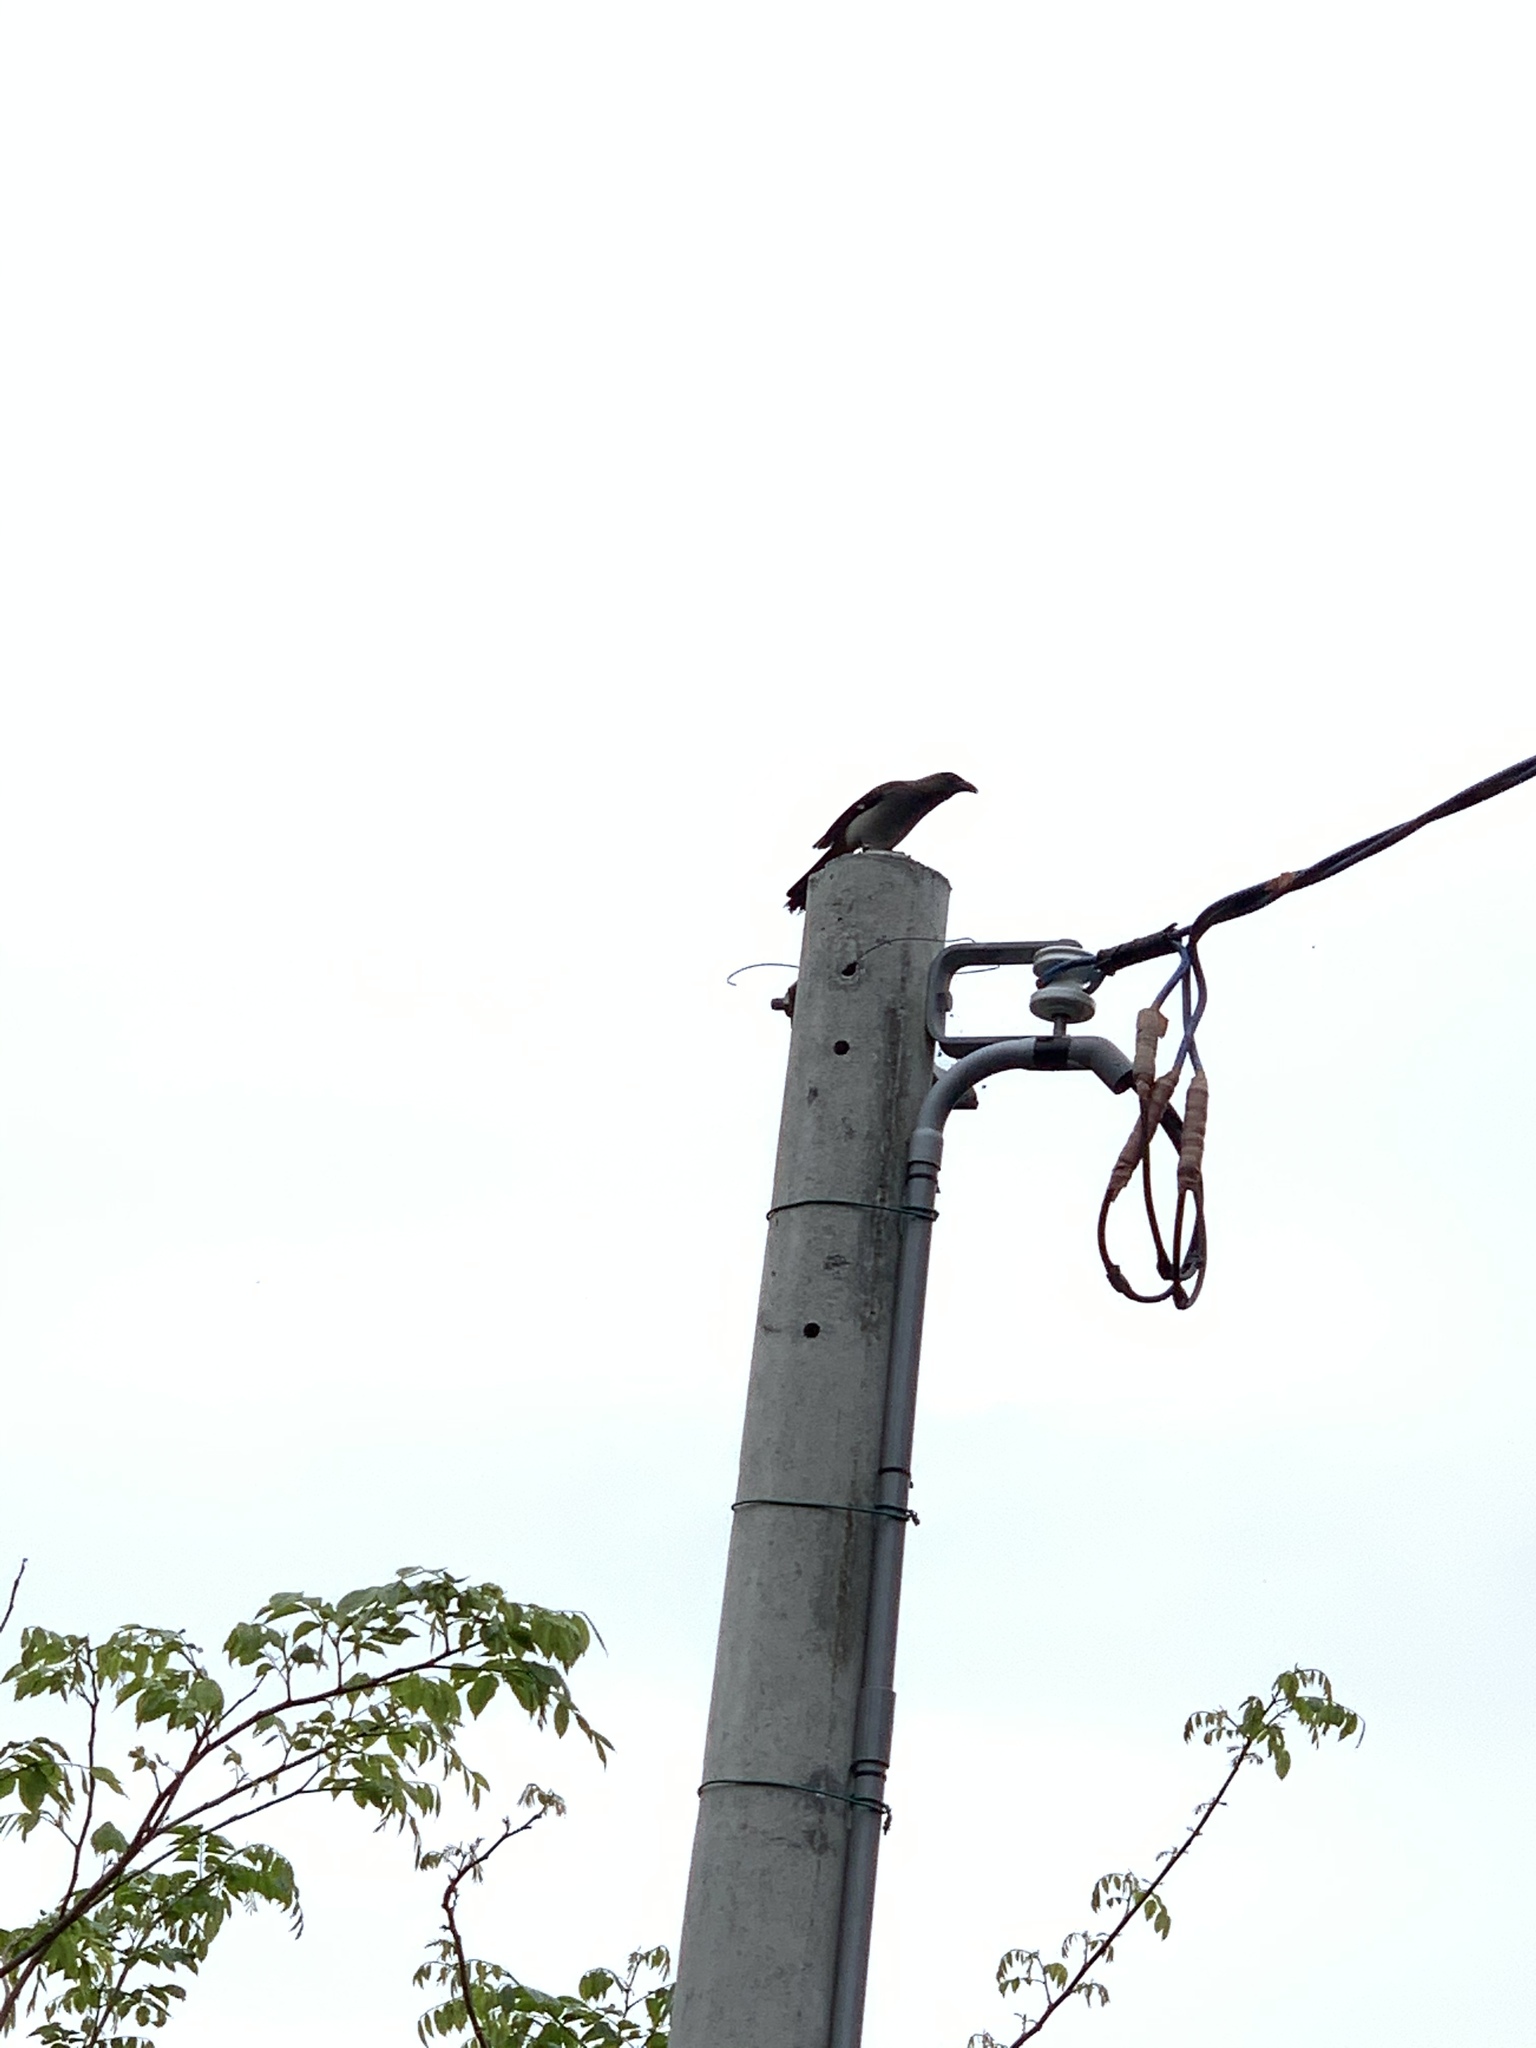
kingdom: Animalia
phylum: Chordata
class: Aves
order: Passeriformes
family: Corvidae
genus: Dendrocitta
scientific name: Dendrocitta formosae
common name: Grey treepie
